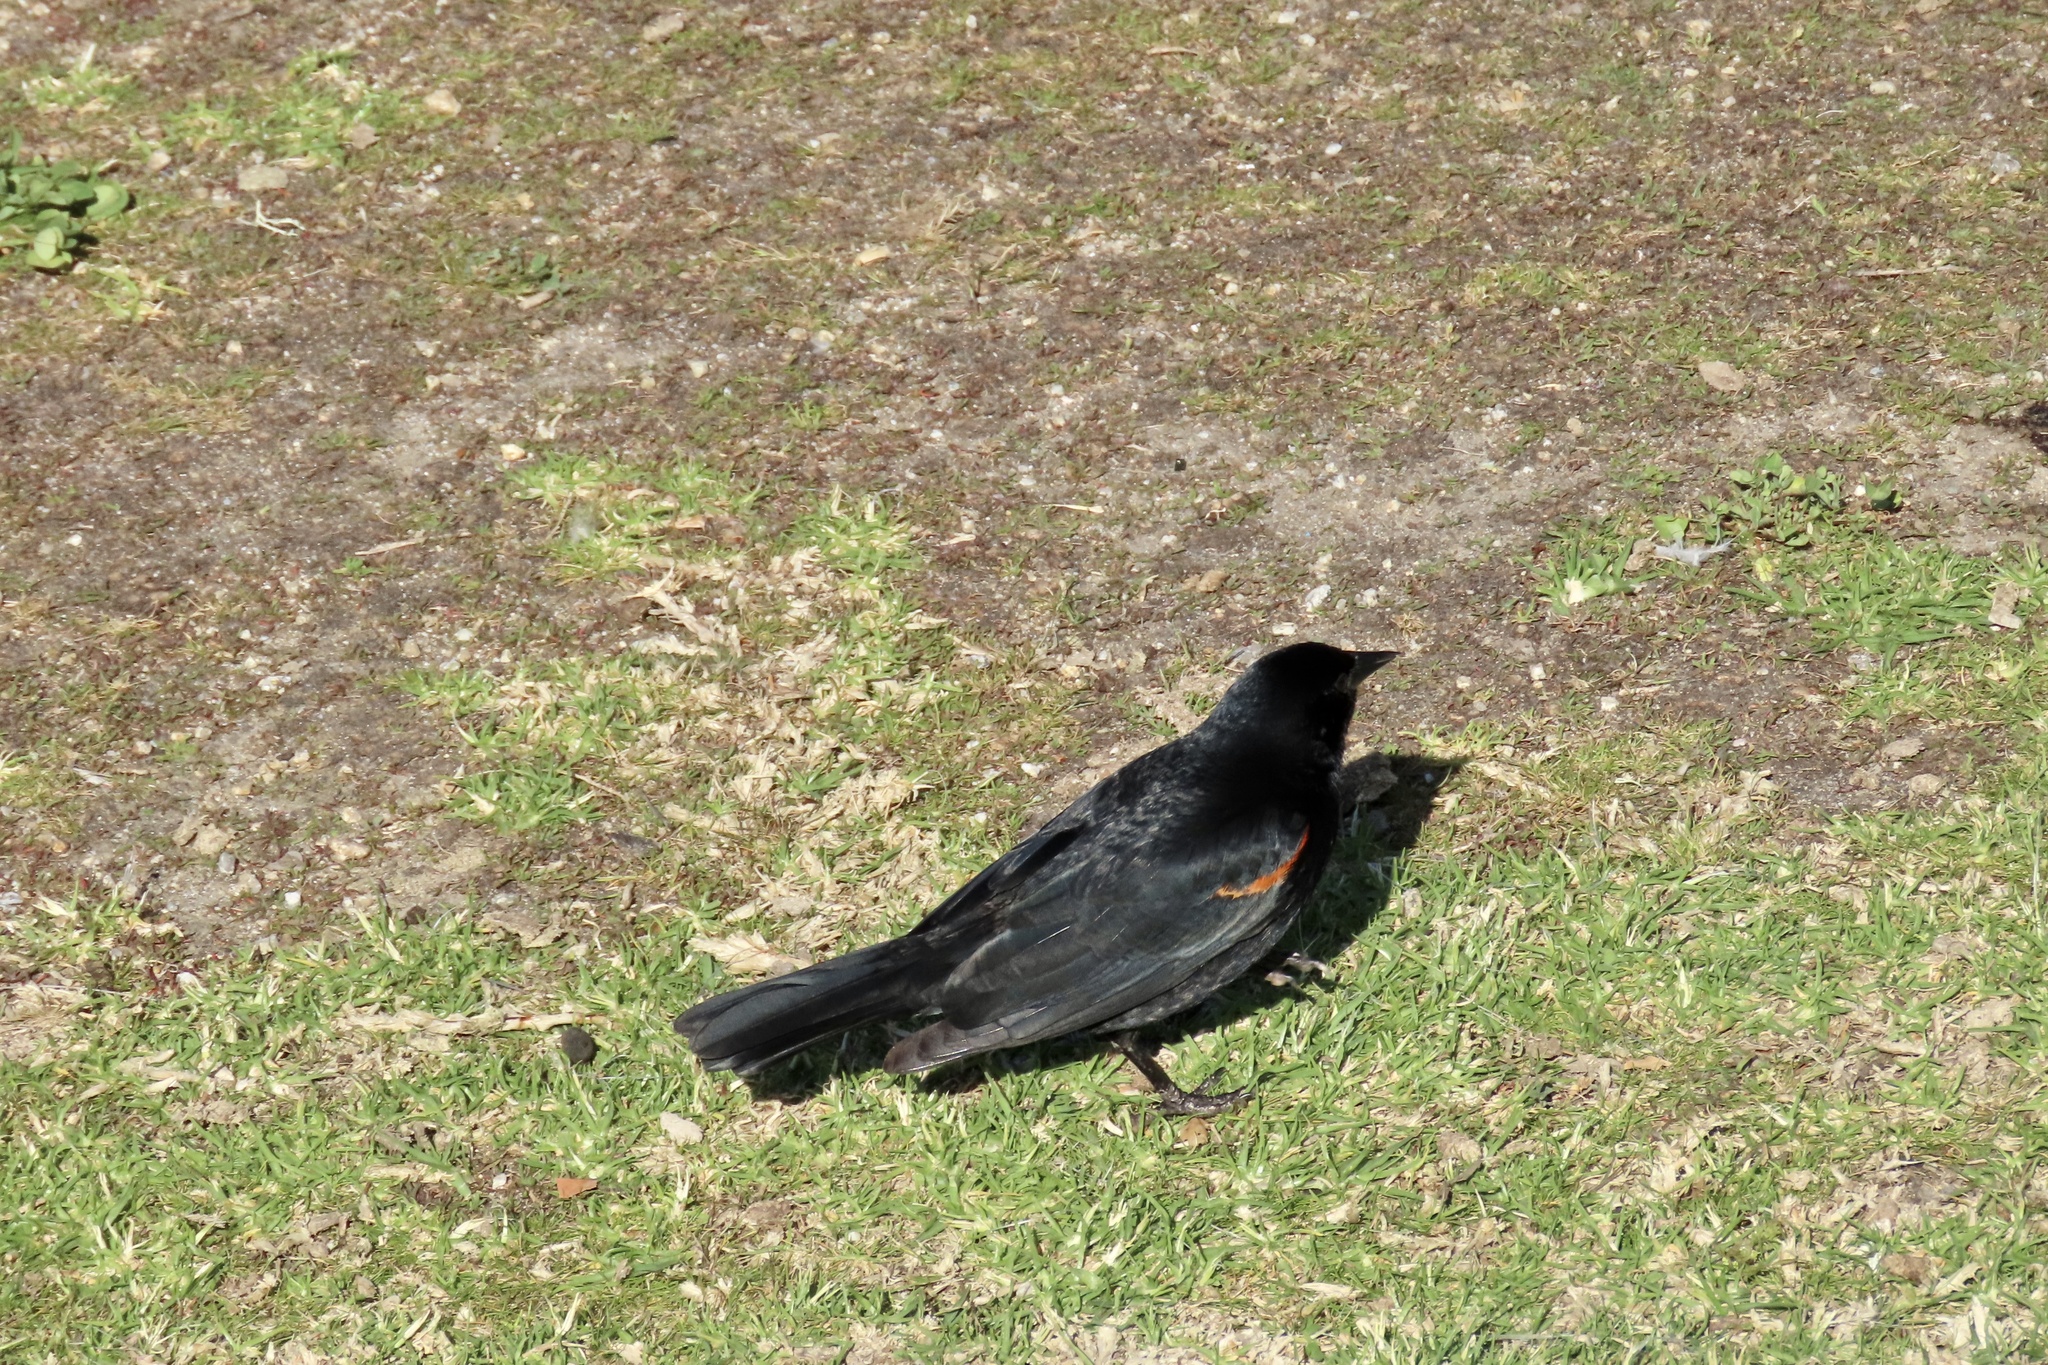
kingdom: Animalia
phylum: Chordata
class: Aves
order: Passeriformes
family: Icteridae
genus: Agelaius
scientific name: Agelaius phoeniceus
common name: Red-winged blackbird
